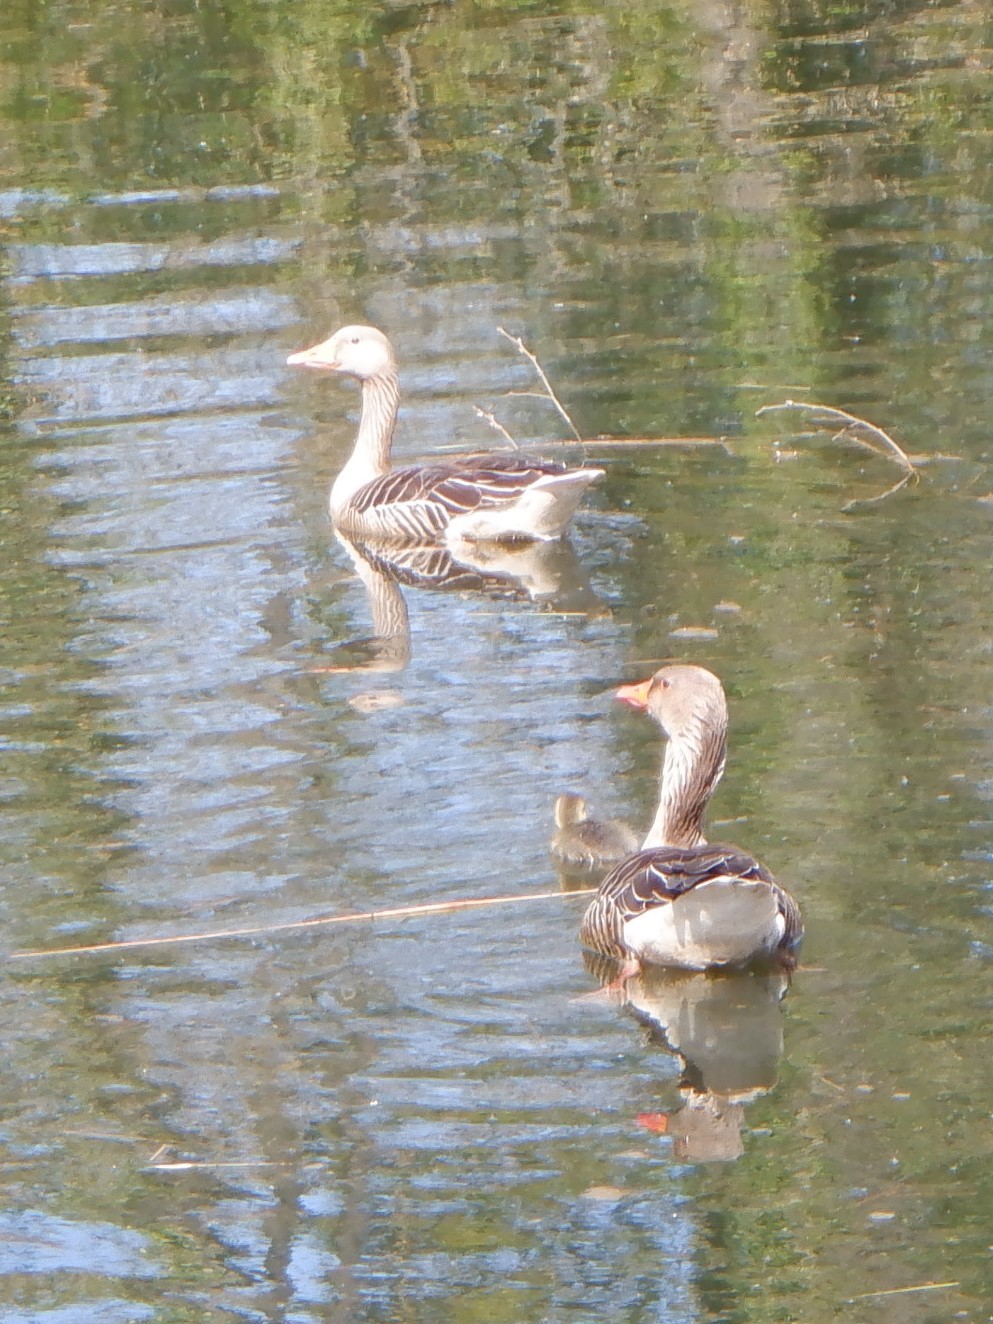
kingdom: Animalia
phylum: Chordata
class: Aves
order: Anseriformes
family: Anatidae
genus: Anser
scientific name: Anser anser
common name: Greylag goose
